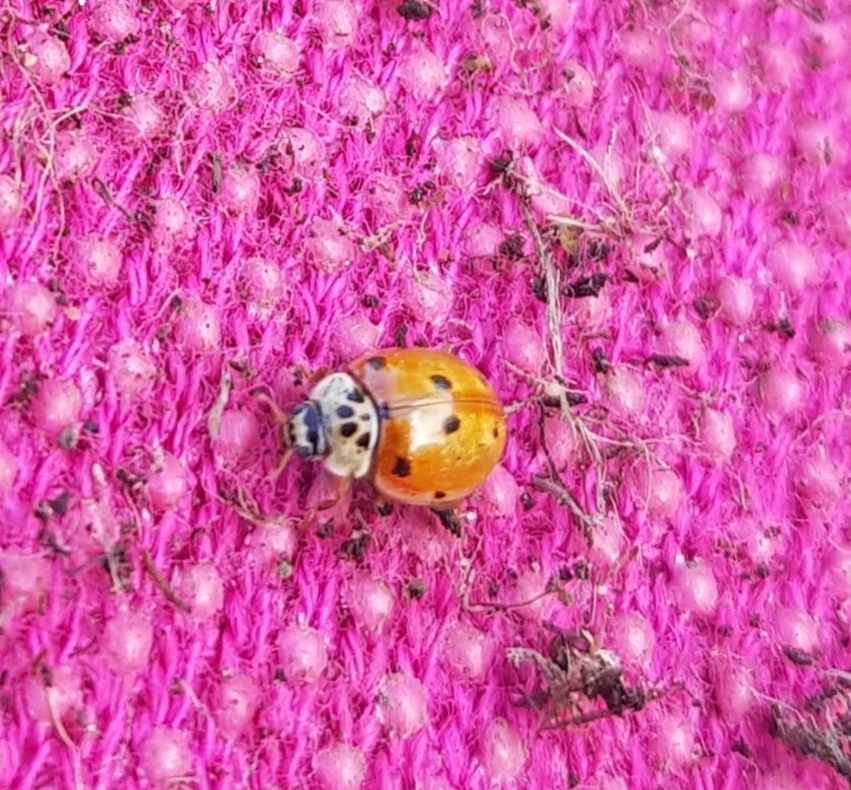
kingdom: Animalia
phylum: Arthropoda
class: Insecta
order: Coleoptera
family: Coccinellidae
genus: Adalia
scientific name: Adalia decempunctata
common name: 10-spot ladybird
